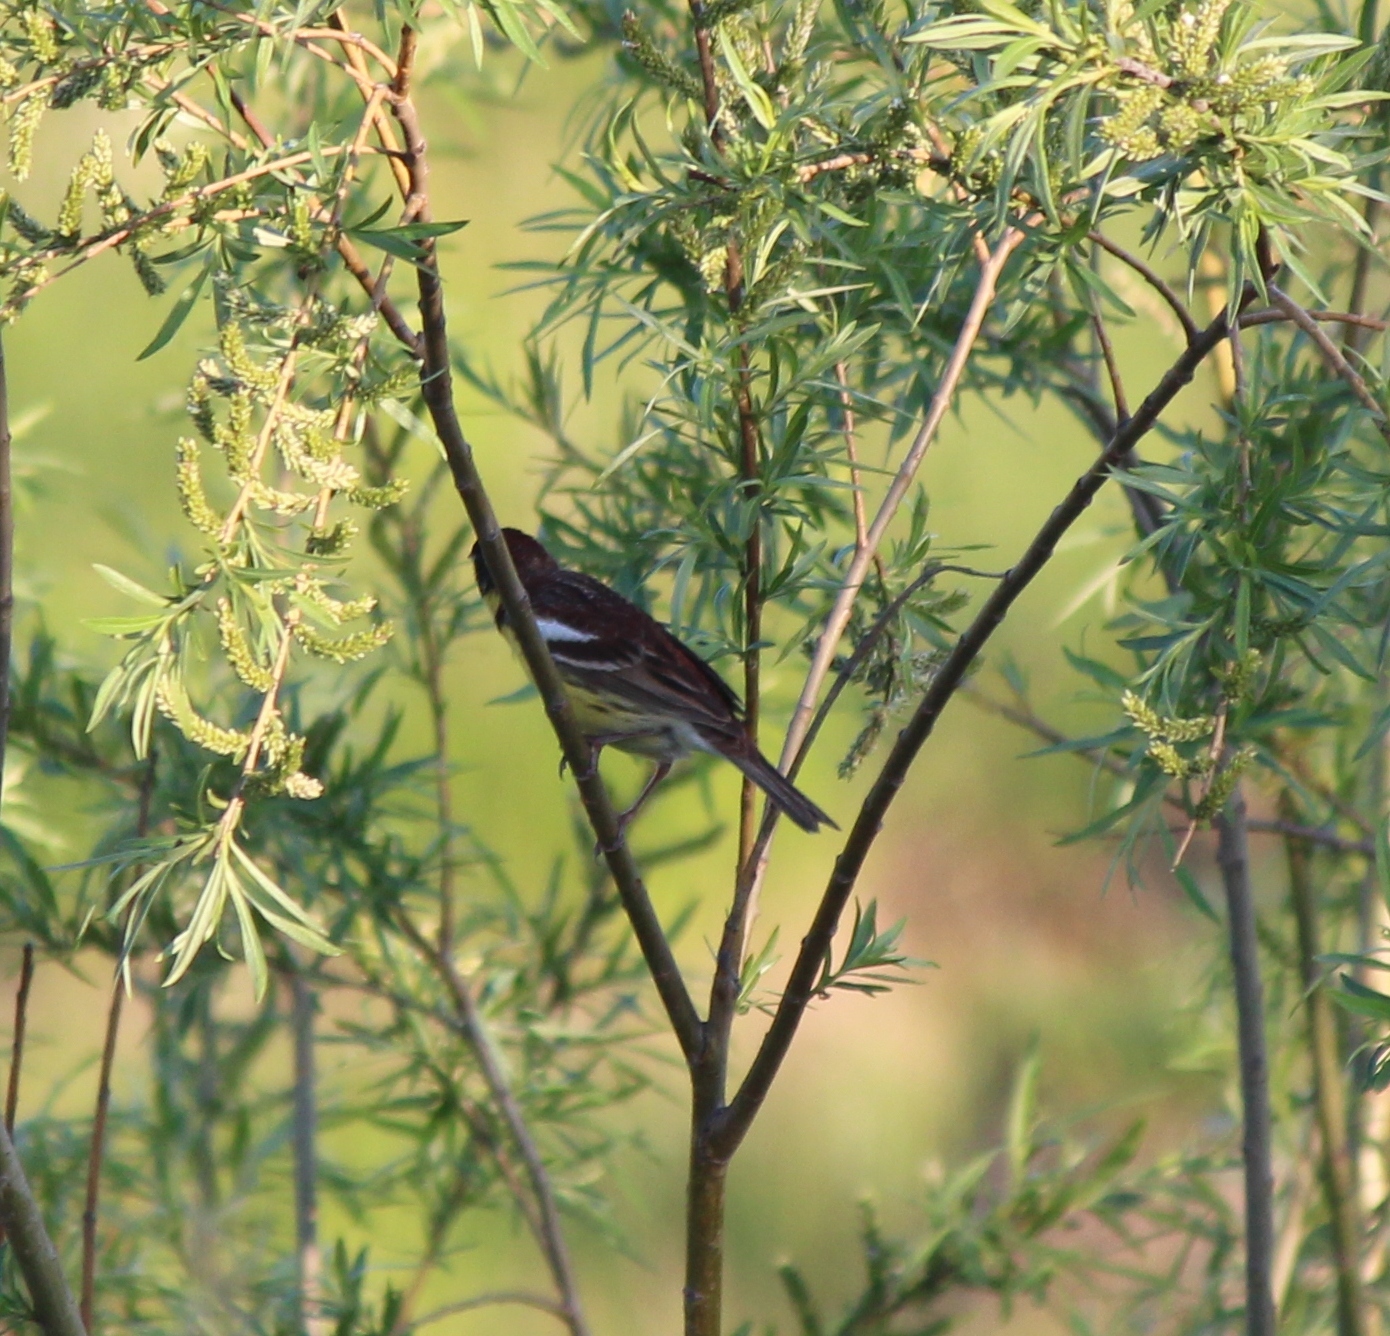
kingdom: Animalia
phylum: Chordata
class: Aves
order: Passeriformes
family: Emberizidae
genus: Emberiza
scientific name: Emberiza aureola
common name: Yellow-breasted bunting
